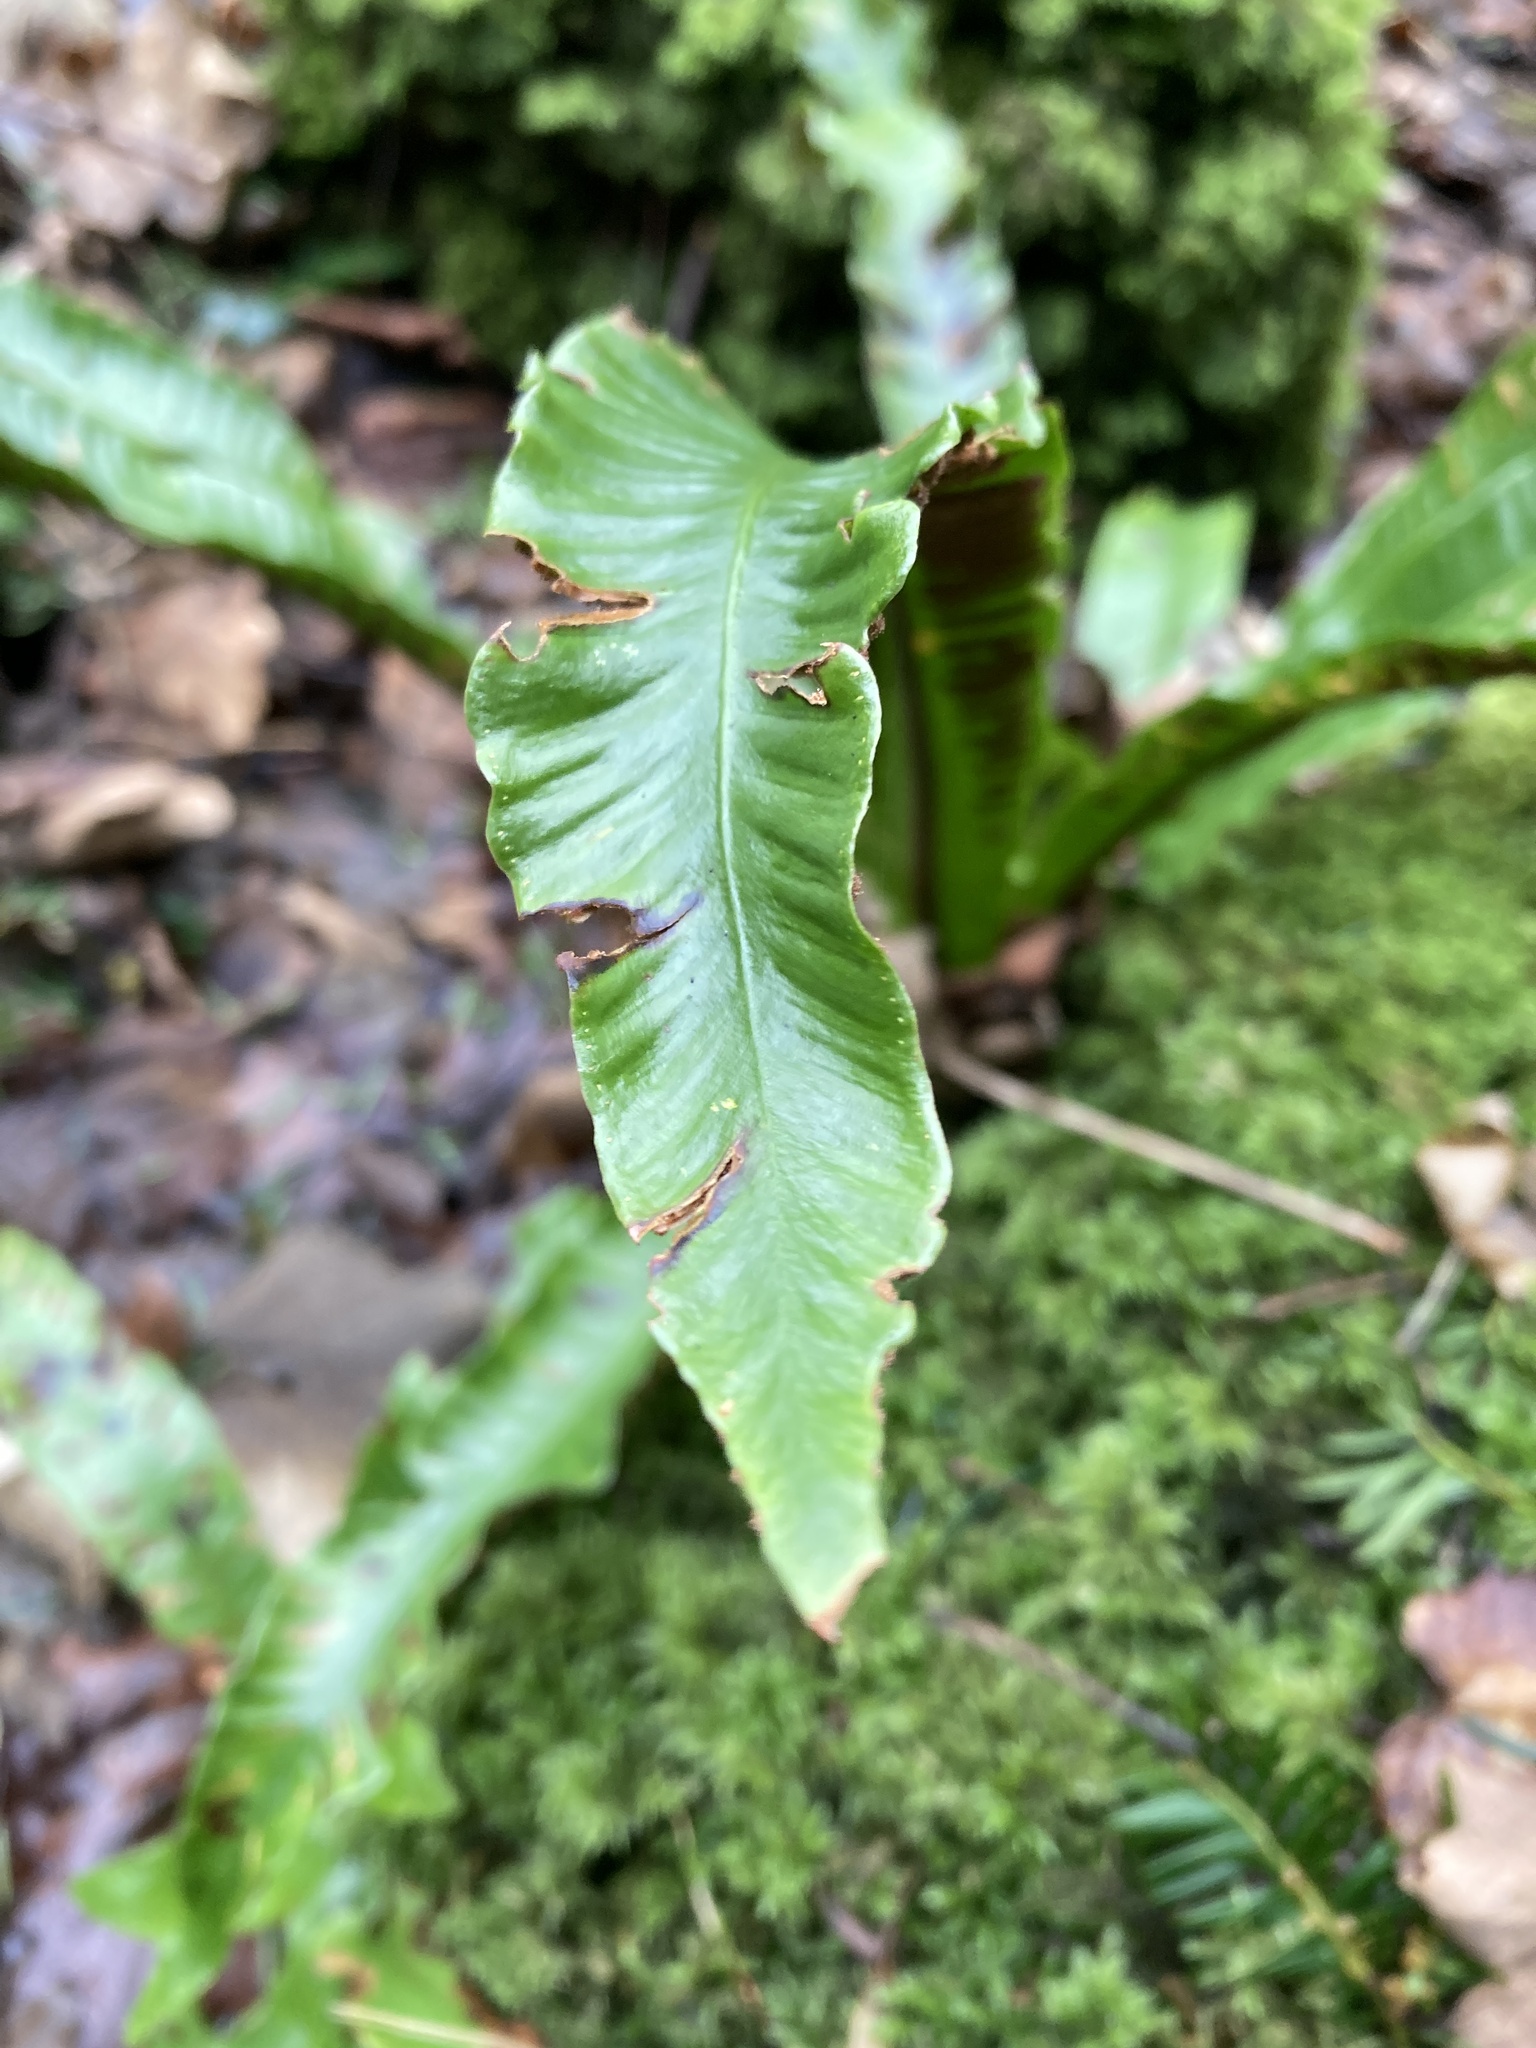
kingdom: Plantae
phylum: Tracheophyta
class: Polypodiopsida
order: Polypodiales
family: Aspleniaceae
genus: Asplenium
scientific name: Asplenium scolopendrium
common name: Hart's-tongue fern
